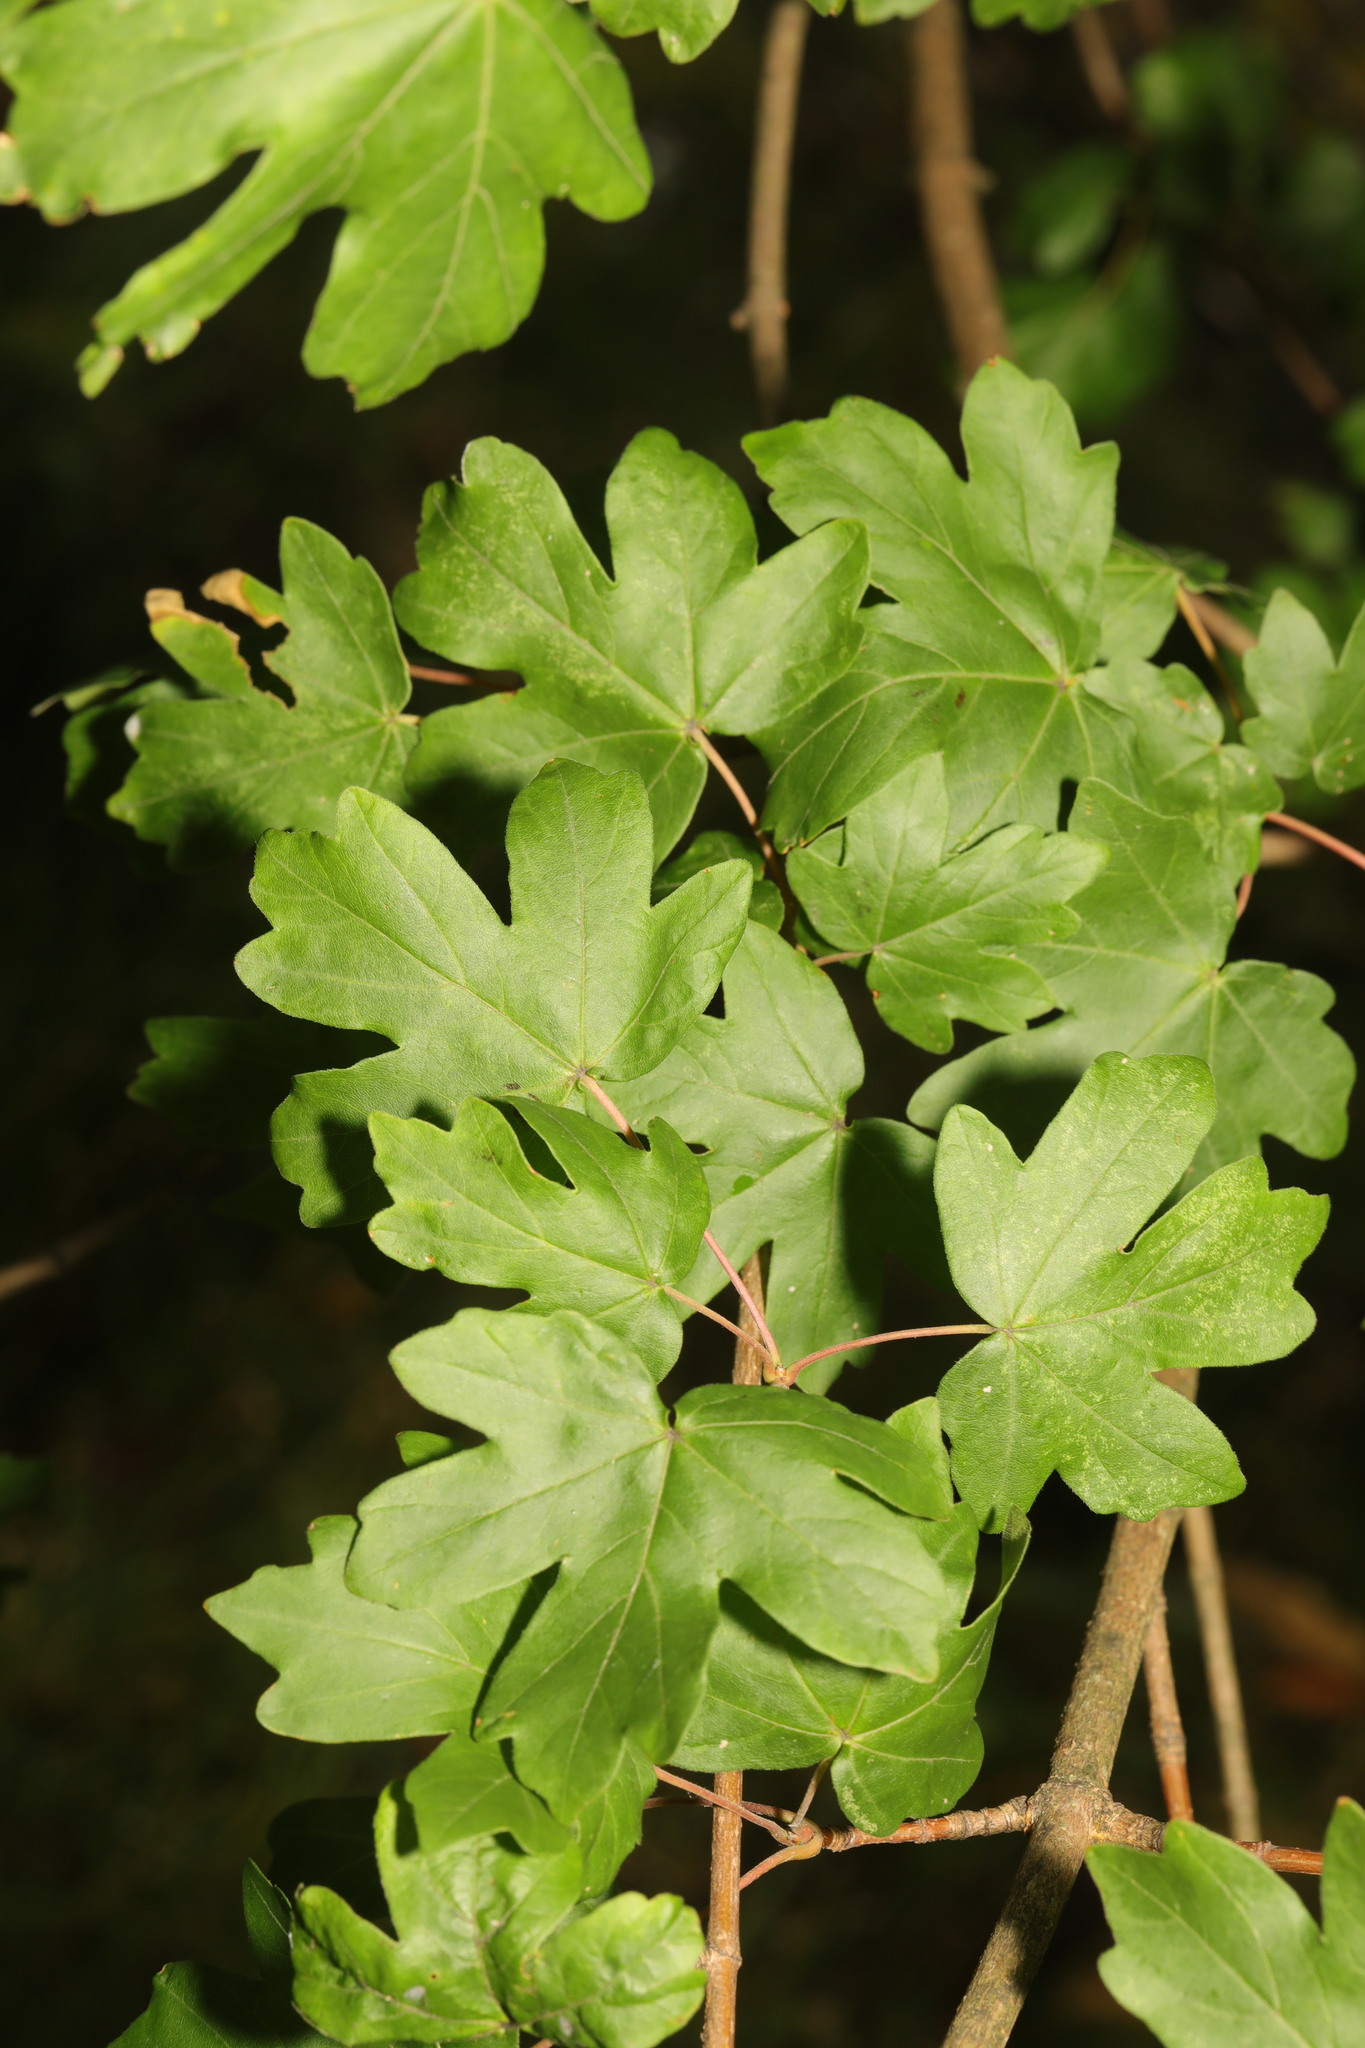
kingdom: Plantae
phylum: Tracheophyta
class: Magnoliopsida
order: Sapindales
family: Sapindaceae
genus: Acer
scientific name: Acer campestre
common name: Field maple
